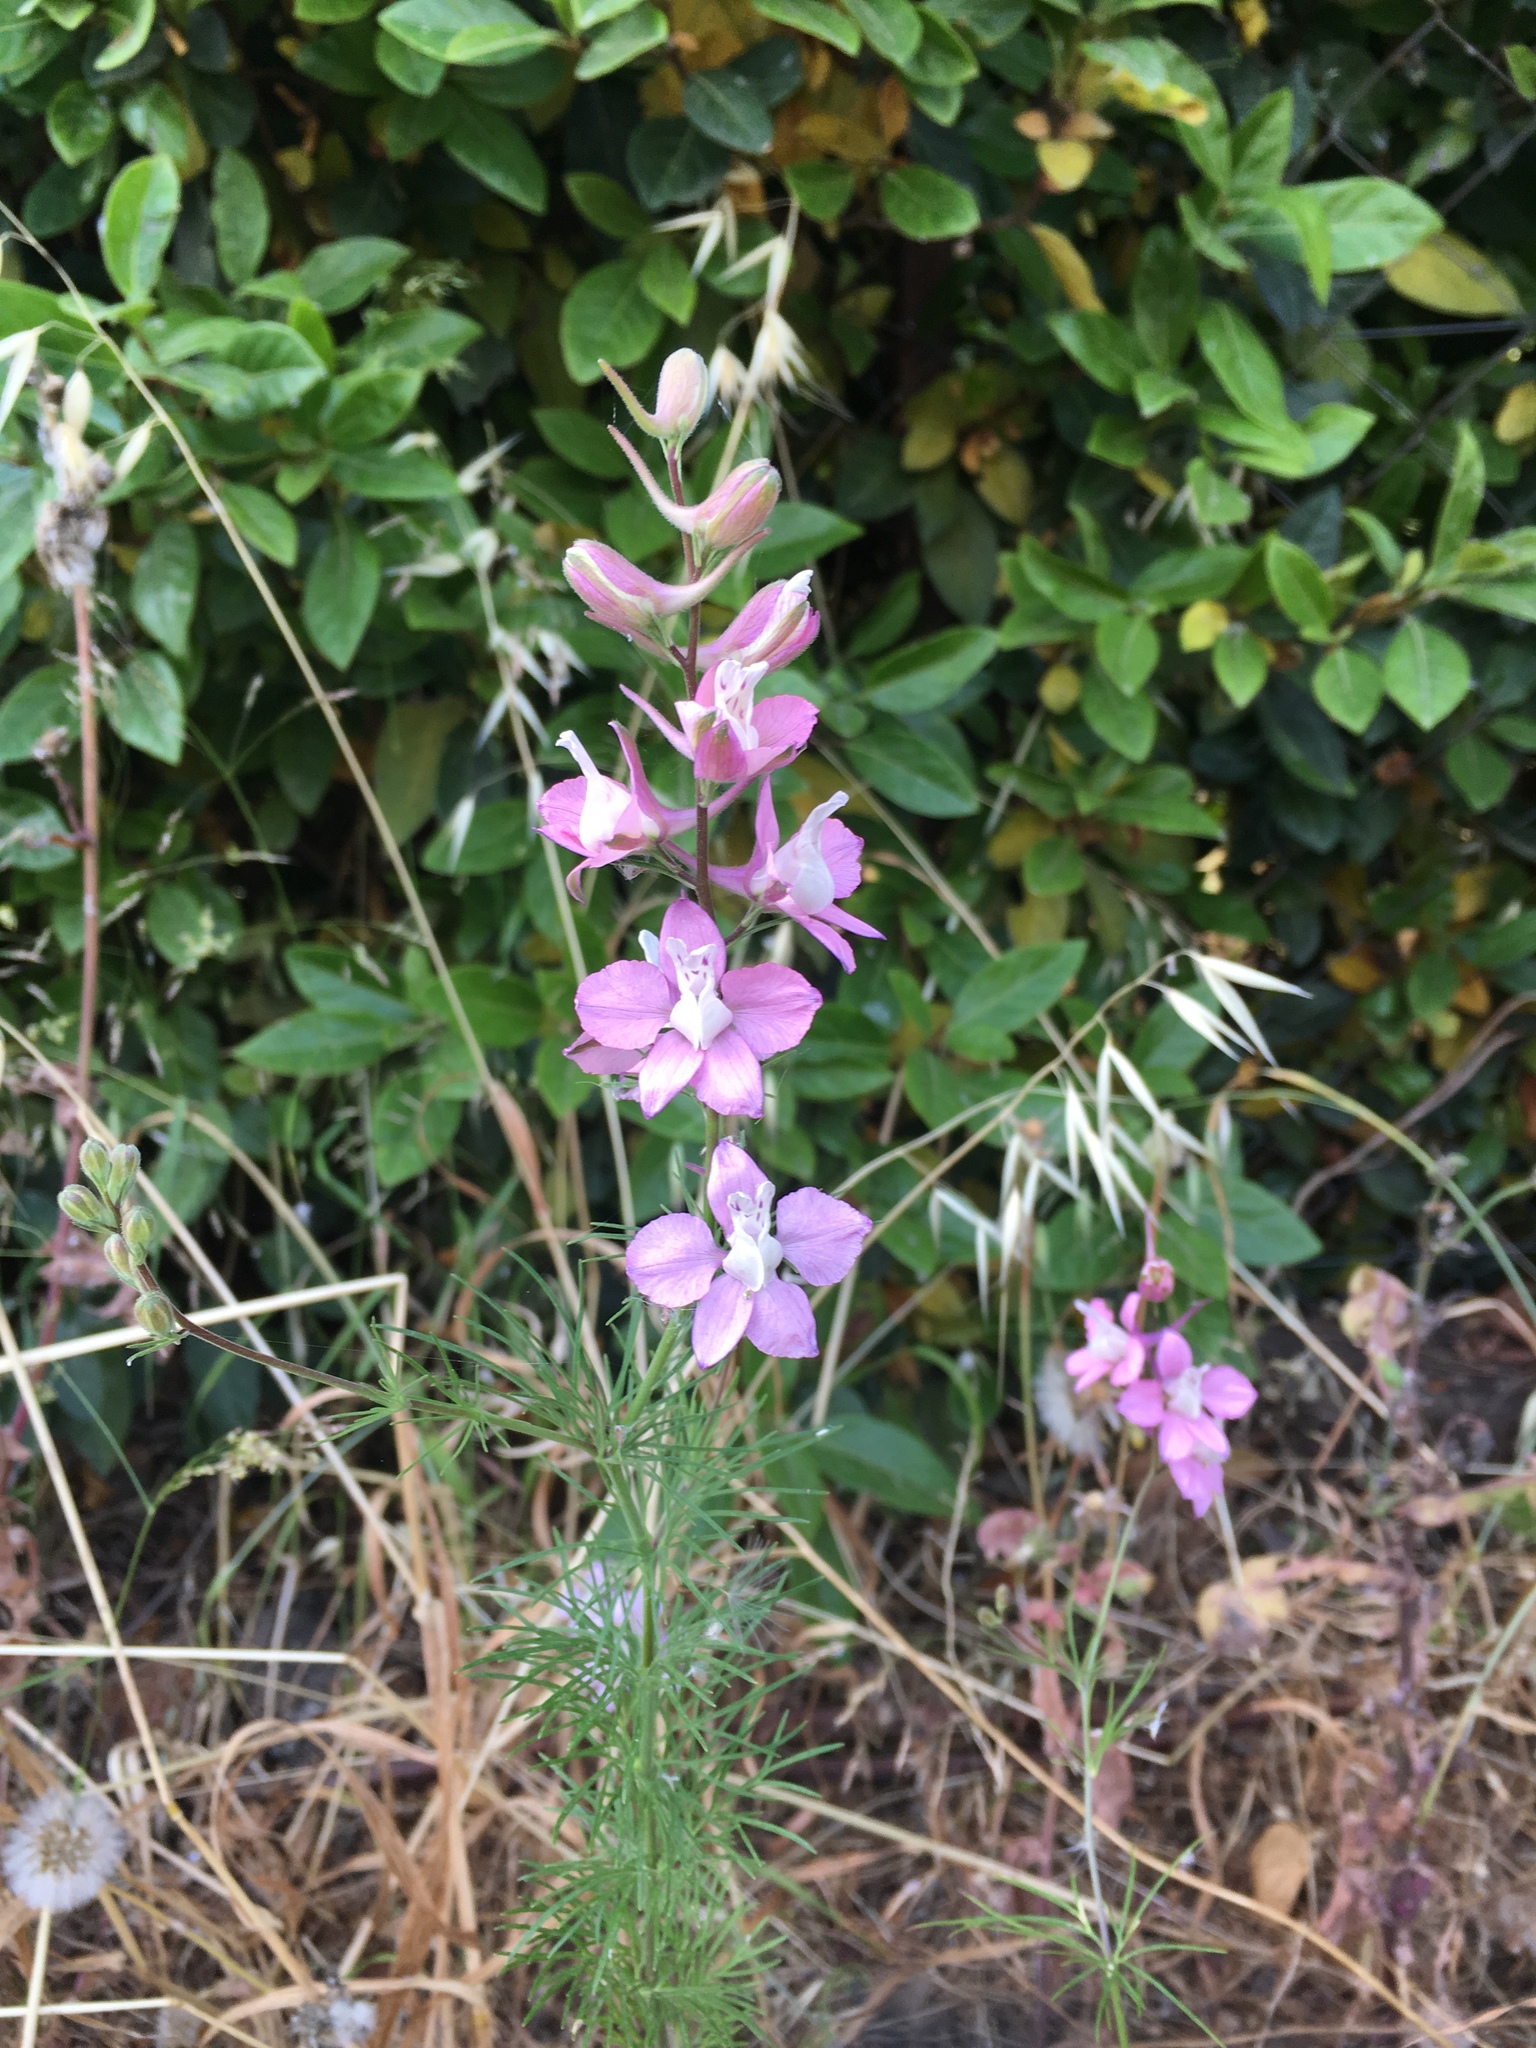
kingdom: Plantae
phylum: Tracheophyta
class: Magnoliopsida
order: Ranunculales
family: Ranunculaceae
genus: Delphinium
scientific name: Delphinium ajacis
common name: Doubtful knight's-spur
